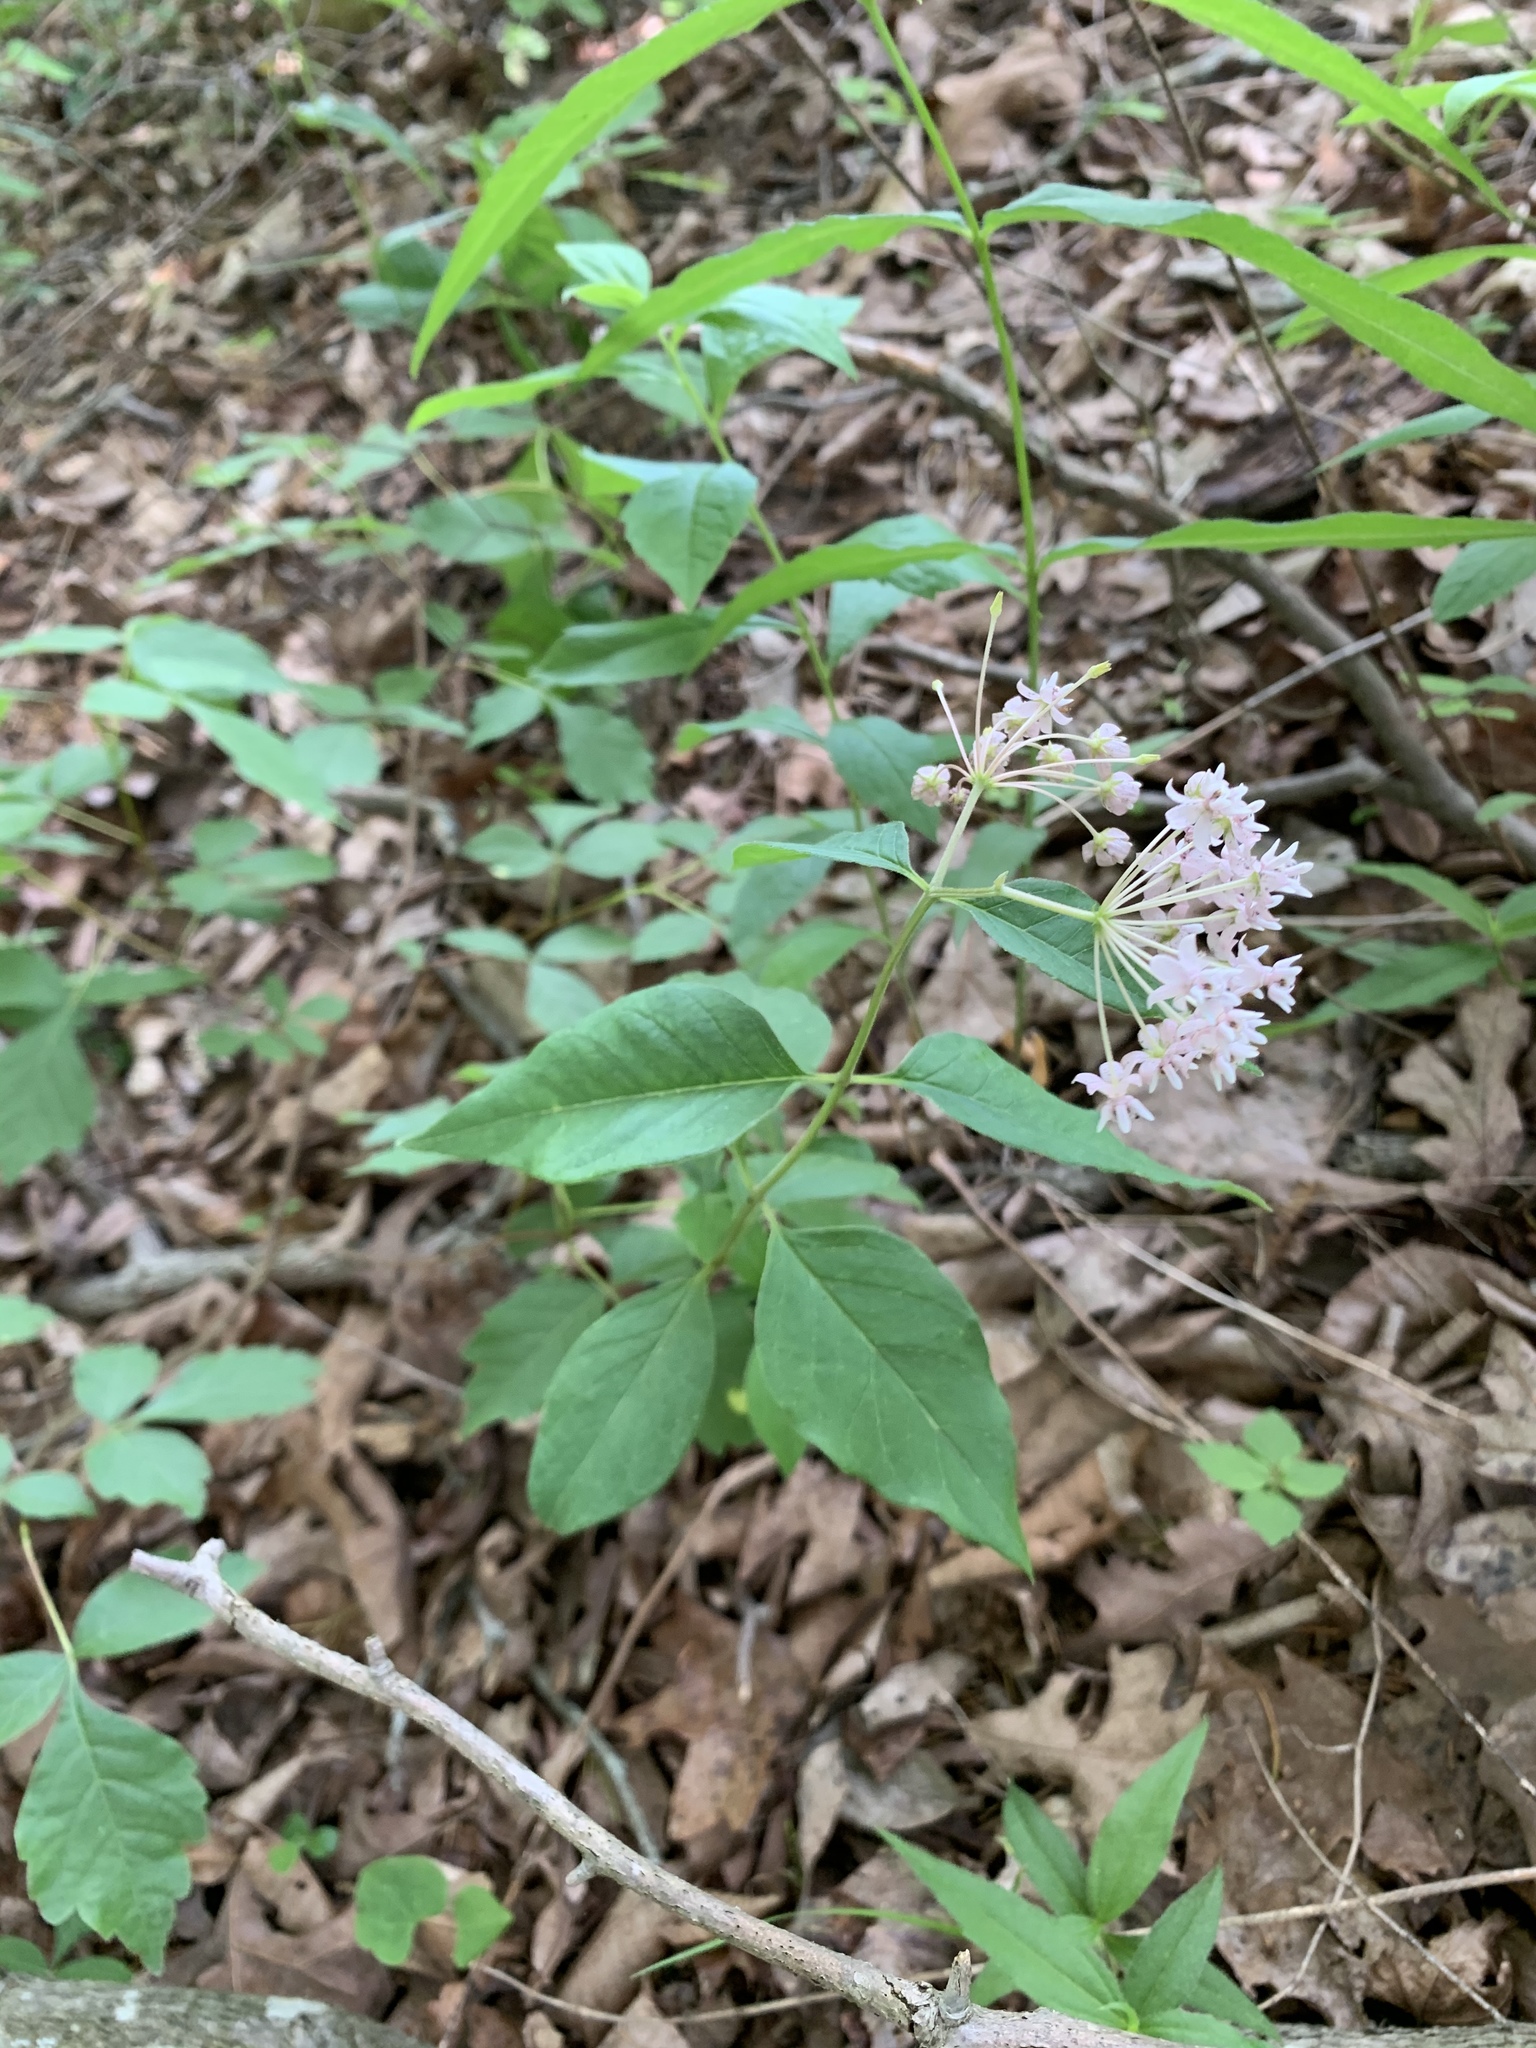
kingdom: Plantae
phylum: Tracheophyta
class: Magnoliopsida
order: Gentianales
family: Apocynaceae
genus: Asclepias
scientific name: Asclepias quadrifolia
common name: Whorled milkweed
